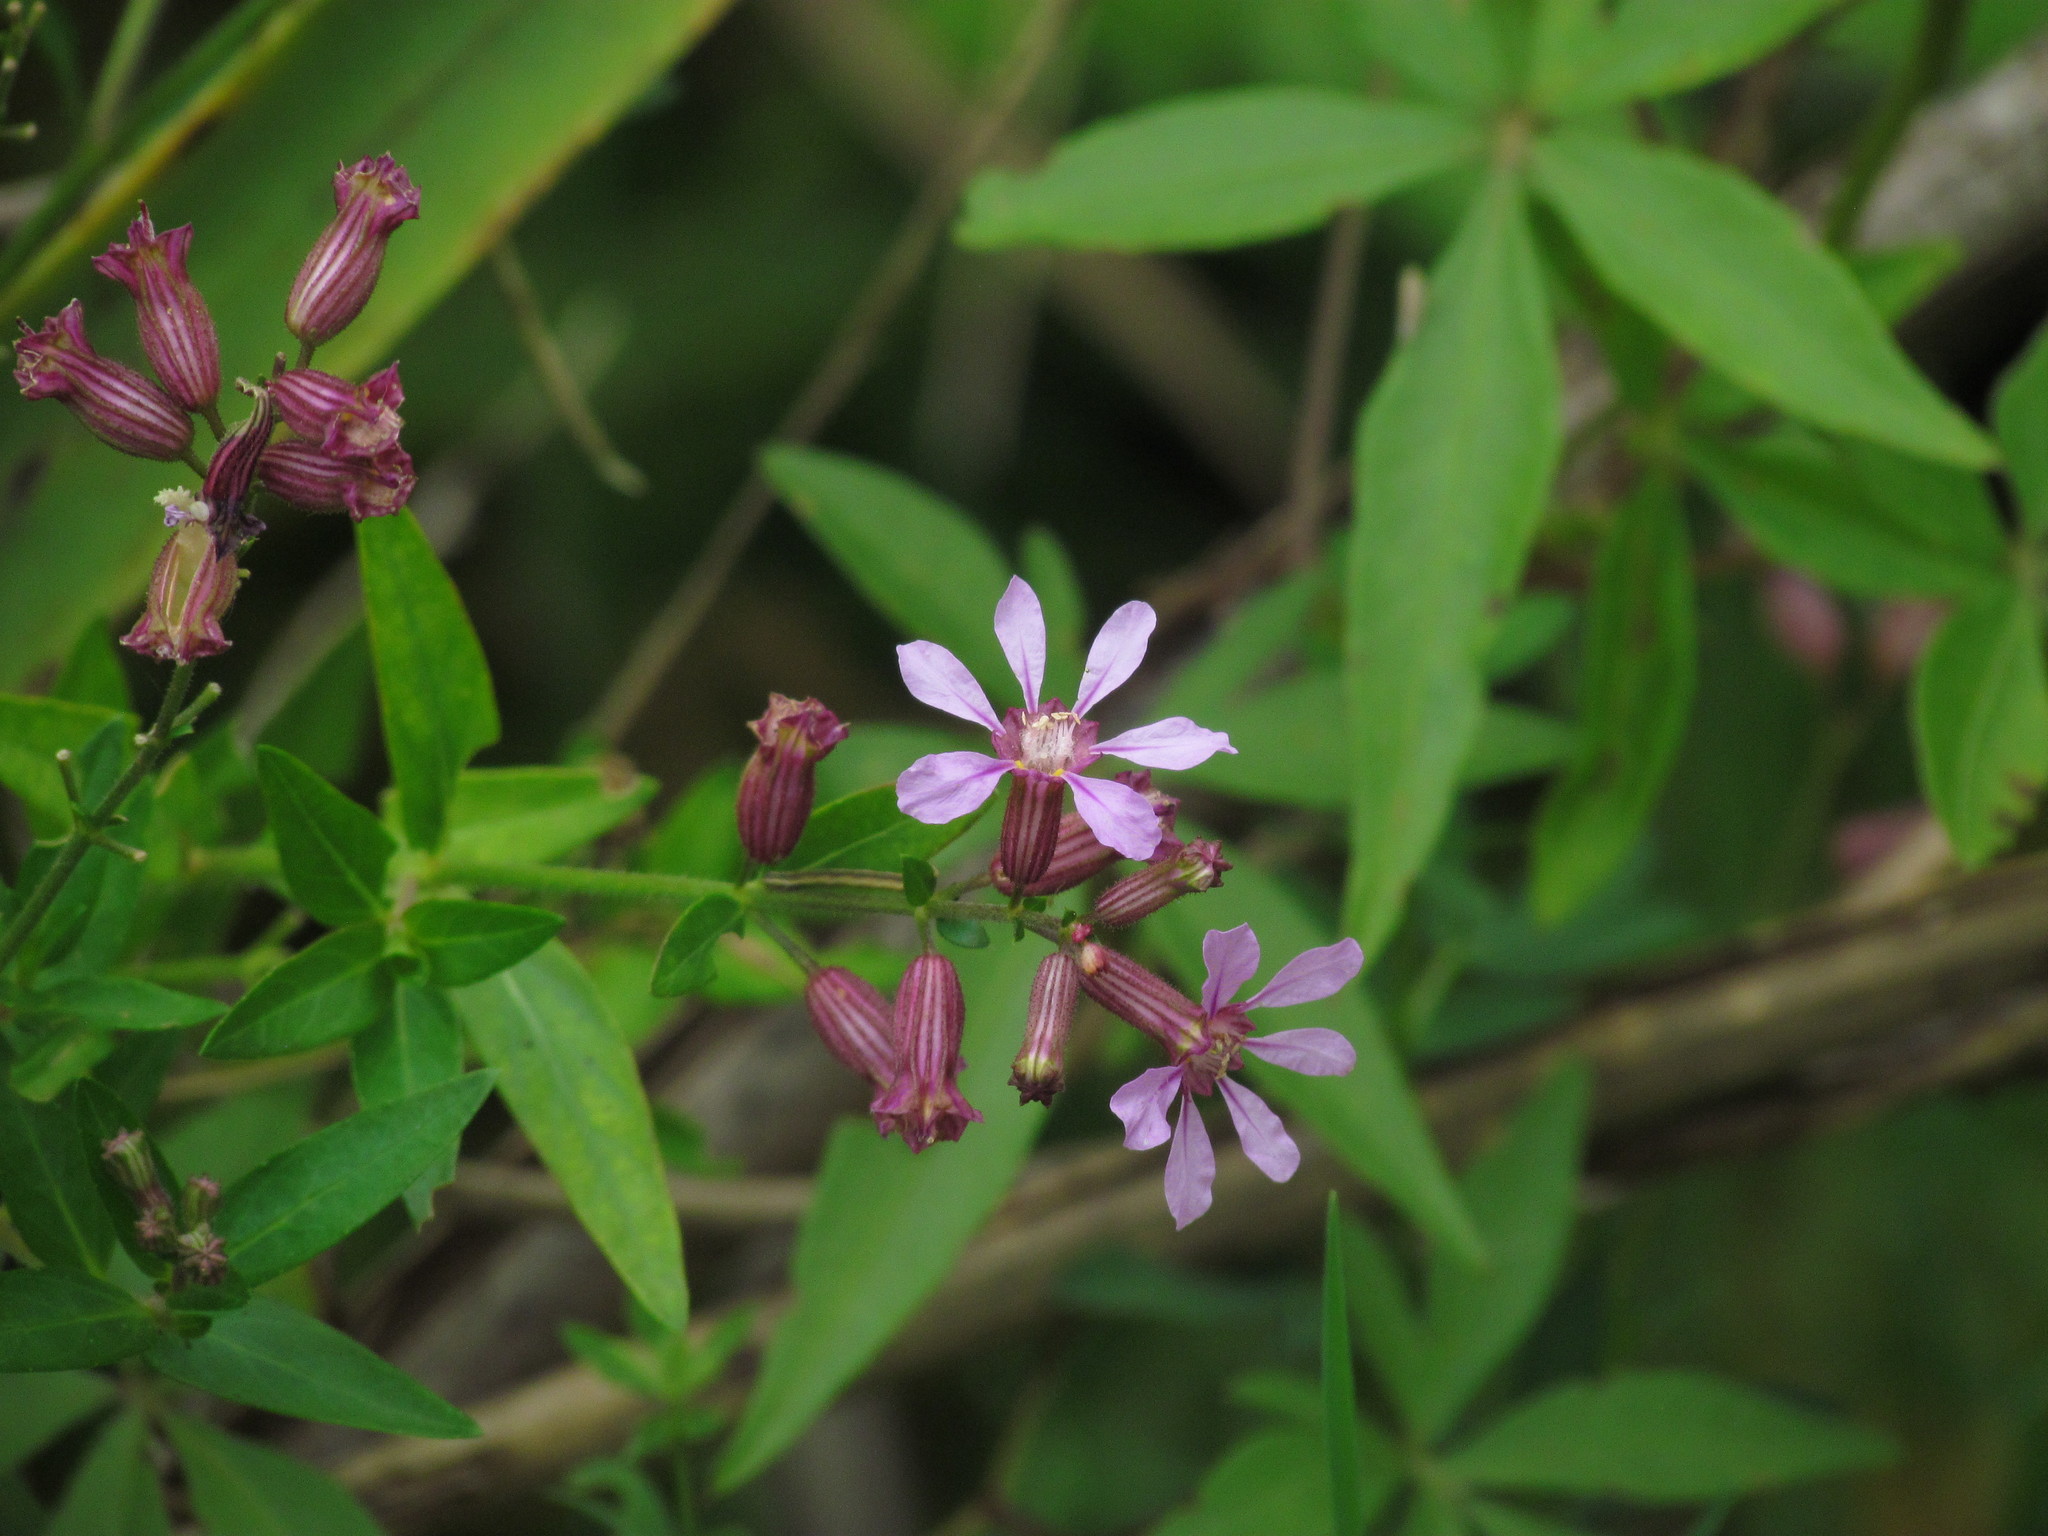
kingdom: Plantae
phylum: Tracheophyta
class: Magnoliopsida
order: Myrtales
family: Lythraceae
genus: Cuphea
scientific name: Cuphea racemosa
